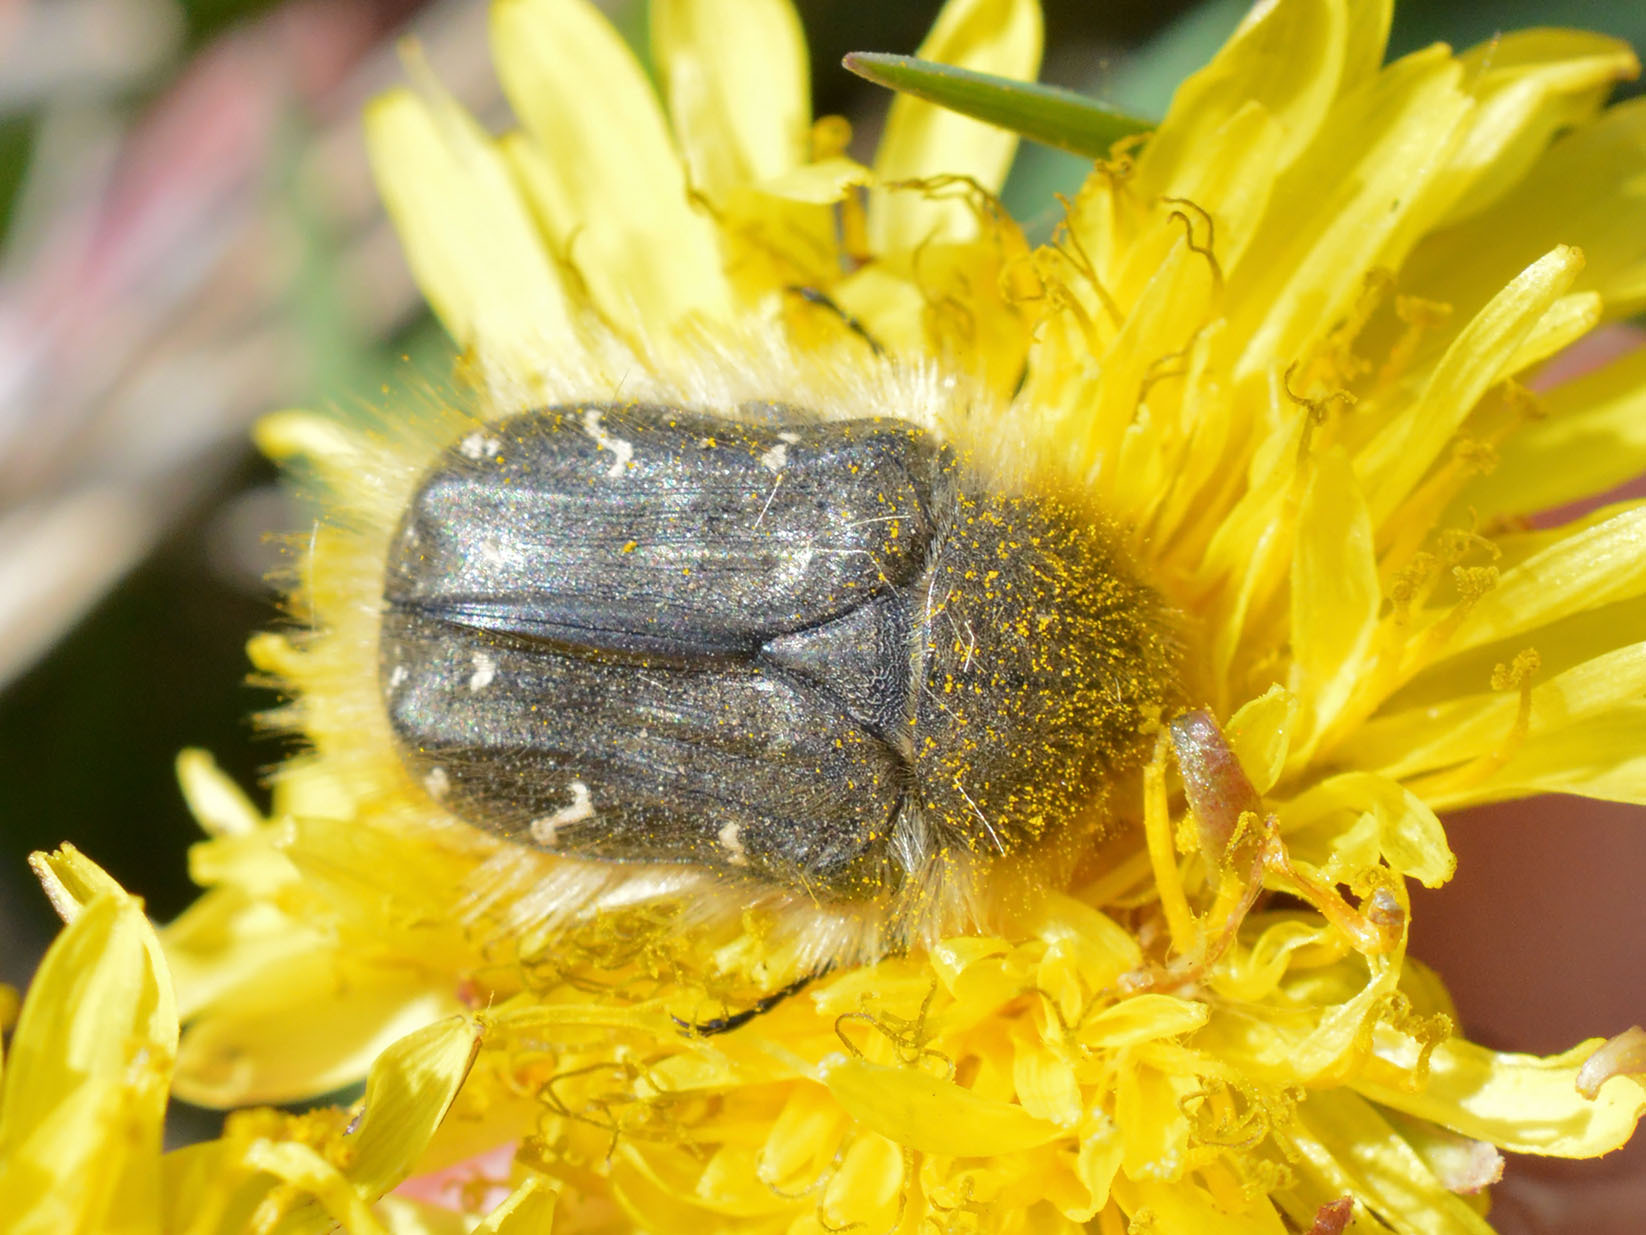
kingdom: Animalia
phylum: Arthropoda
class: Insecta
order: Coleoptera
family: Scarabaeidae
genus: Tropinota
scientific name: Tropinota hirta
